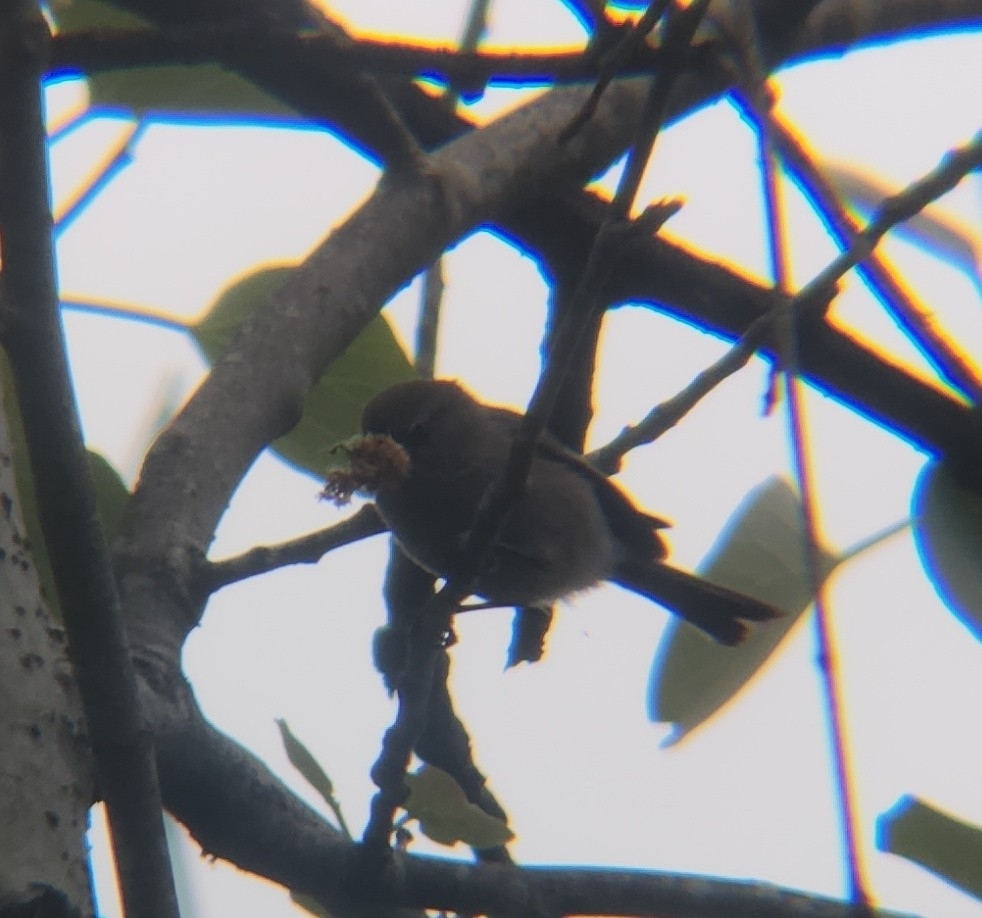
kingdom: Animalia
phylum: Chordata
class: Aves
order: Passeriformes
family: Aegithalidae
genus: Psaltriparus
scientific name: Psaltriparus minimus
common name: American bushtit
